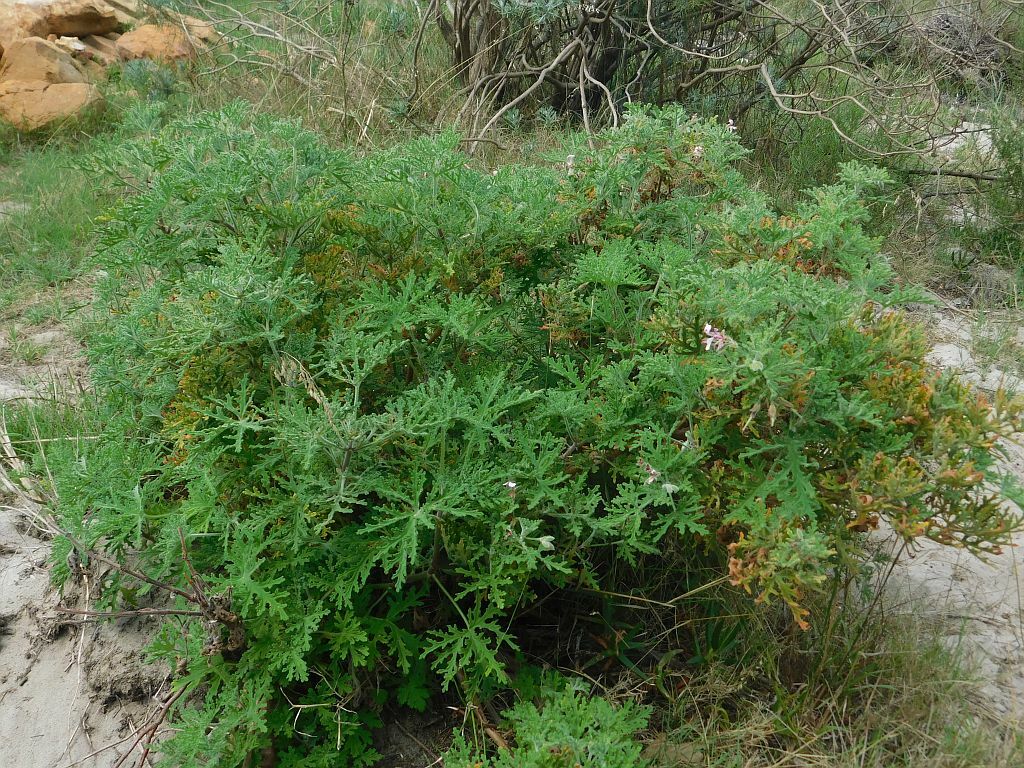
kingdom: Plantae
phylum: Tracheophyta
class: Magnoliopsida
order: Geraniales
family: Geraniaceae
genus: Pelargonium
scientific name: Pelargonium graveolens
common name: Rose-scent geranium
